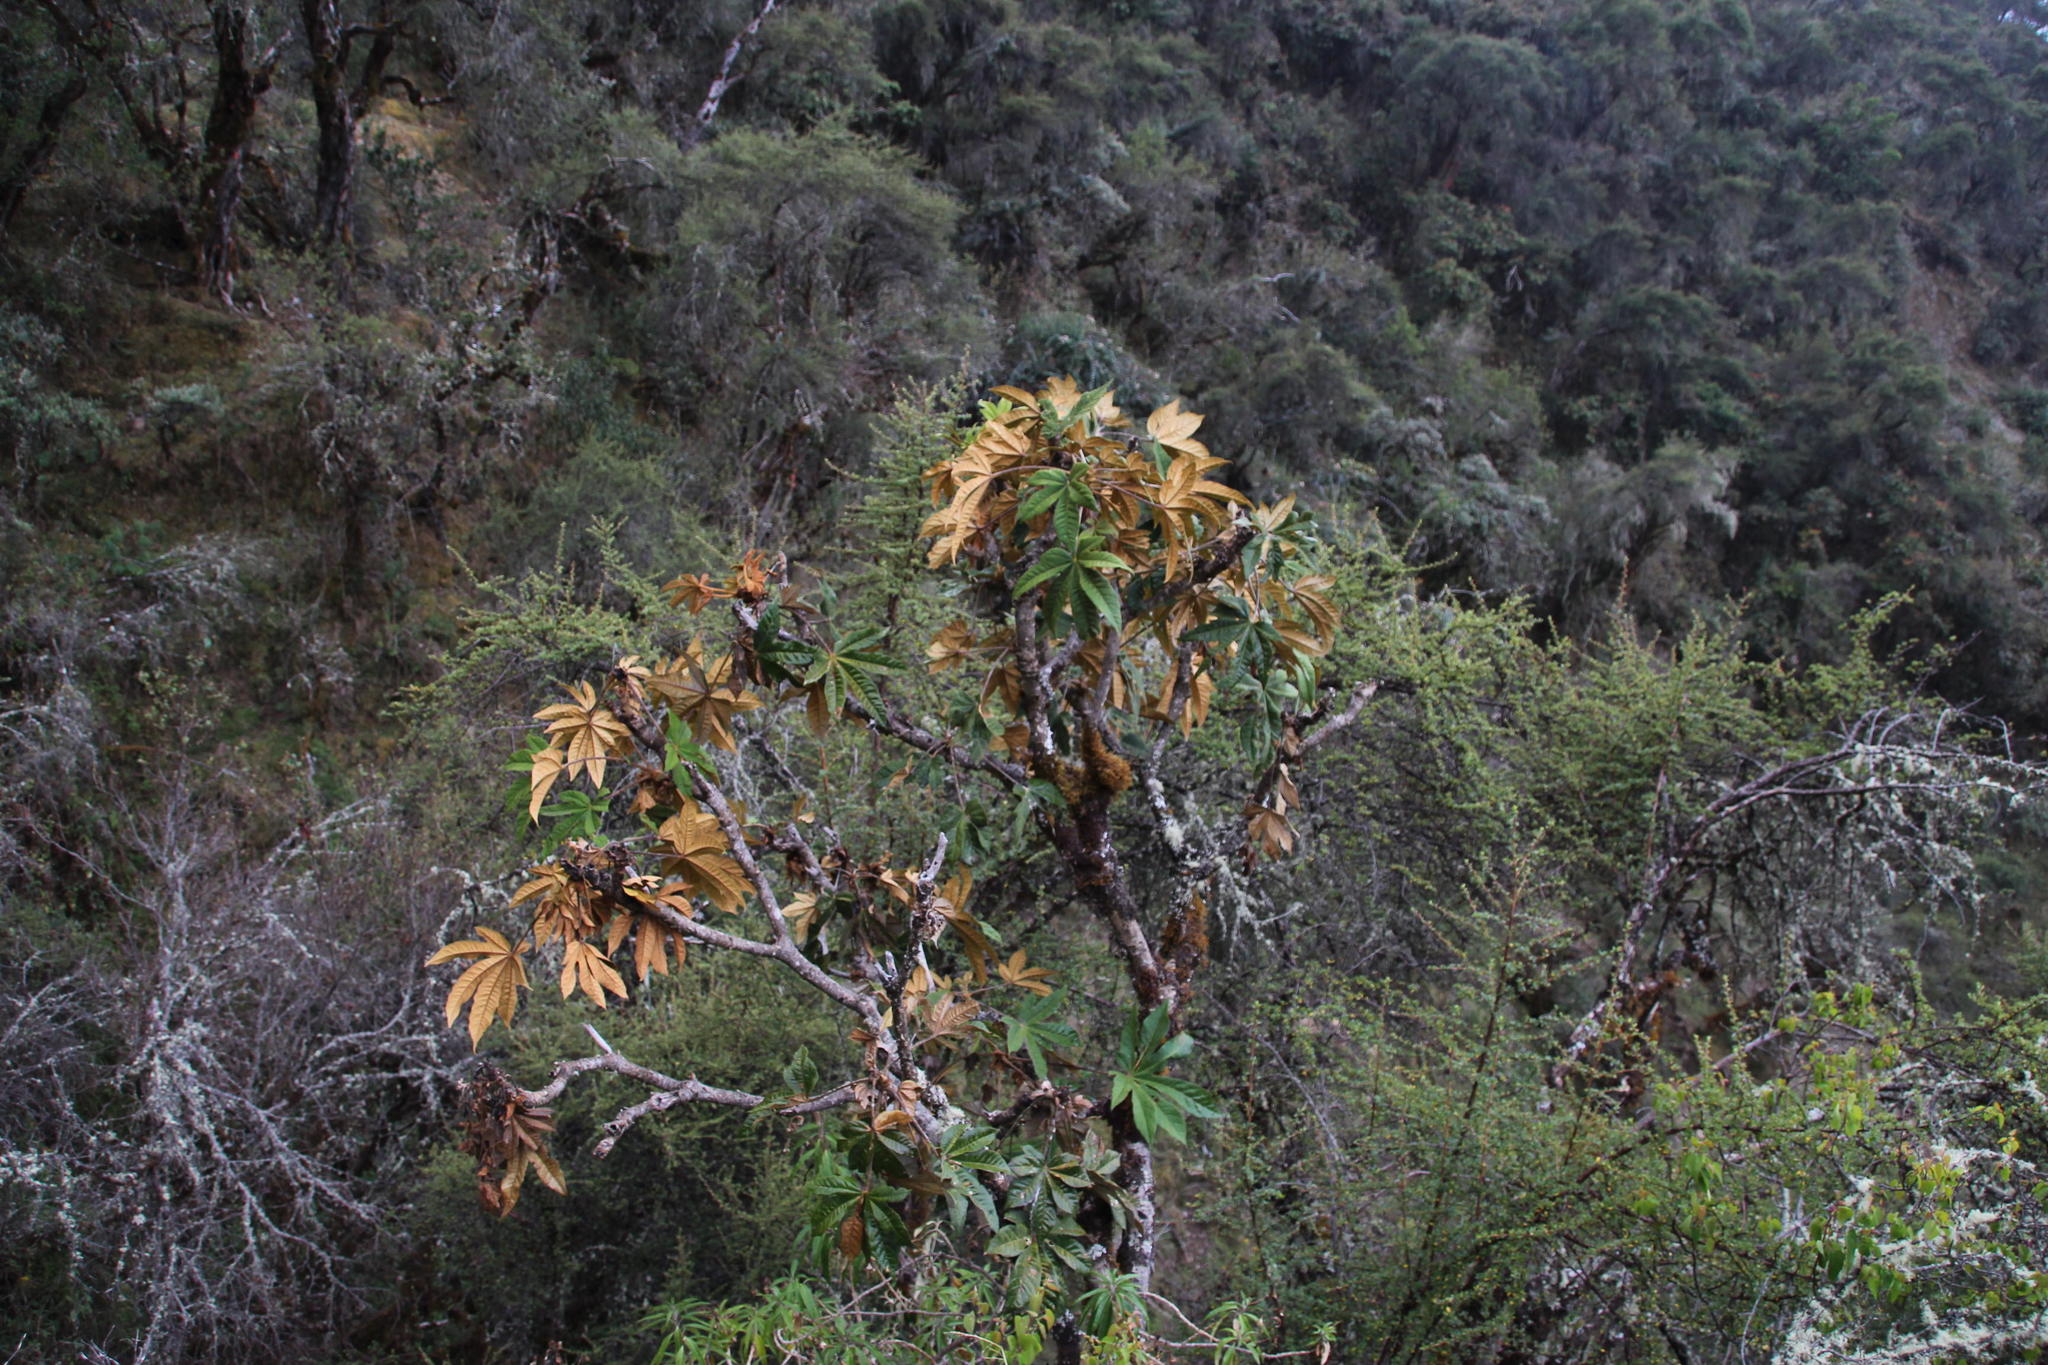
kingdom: Plantae
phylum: Tracheophyta
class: Magnoliopsida
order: Apiales
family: Araliaceae
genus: Oreopanax
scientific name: Oreopanax ischnolobus
